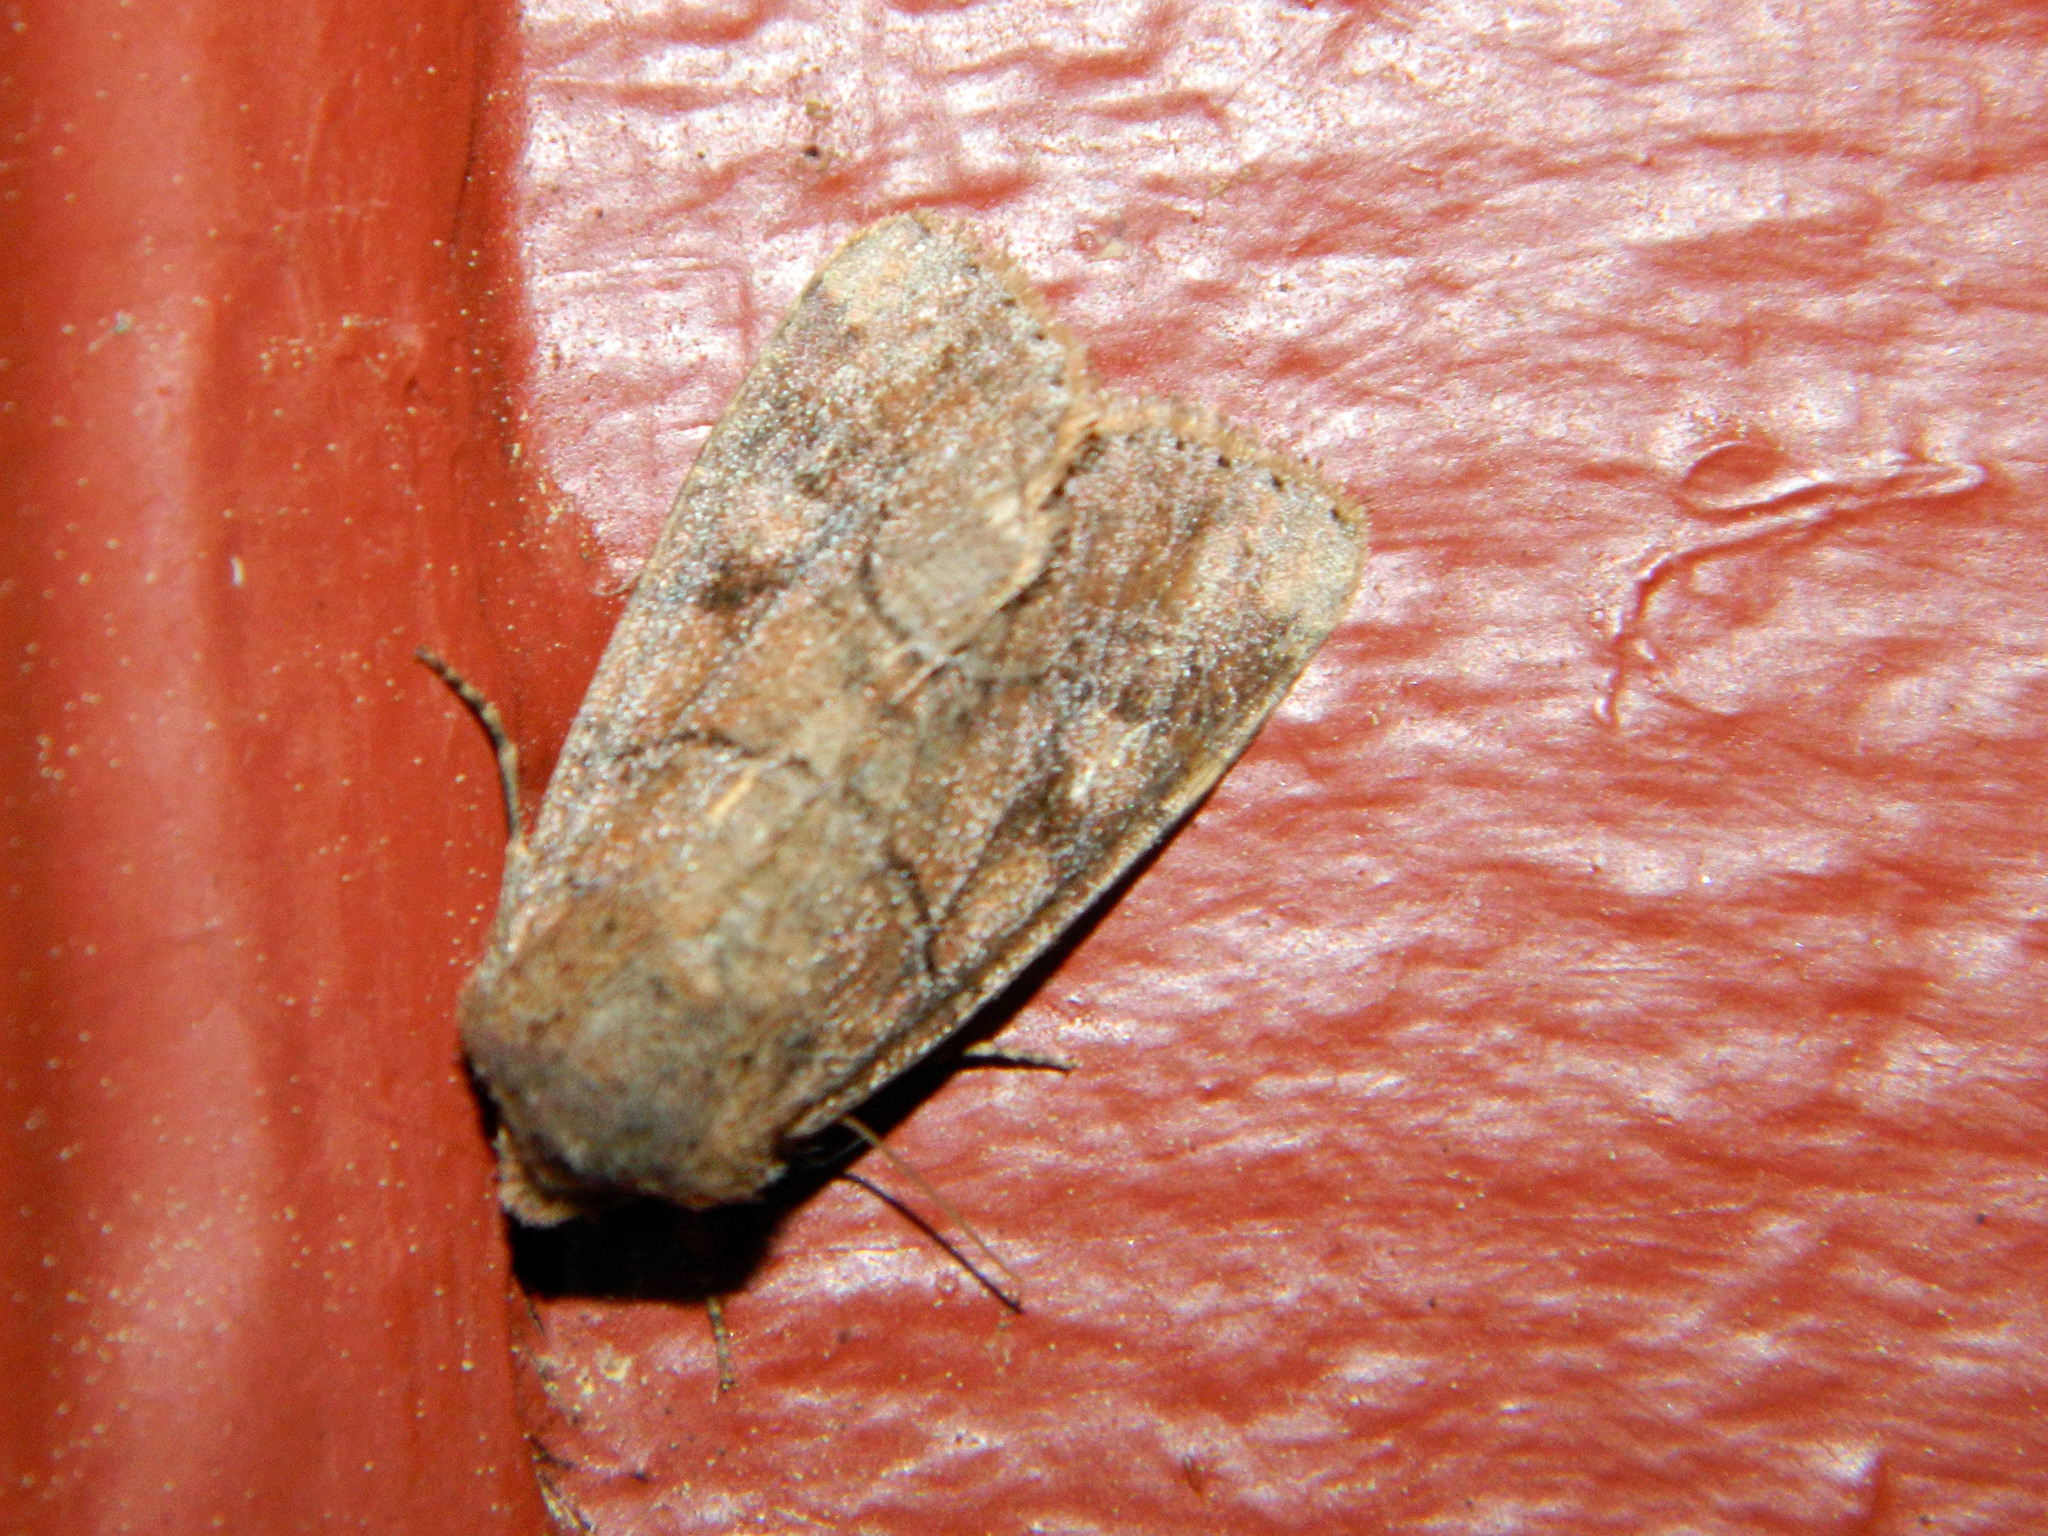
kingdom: Animalia
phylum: Arthropoda
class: Insecta
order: Lepidoptera
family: Noctuidae
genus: Crocigrapha
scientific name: Crocigrapha normani
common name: Norman's quaker
